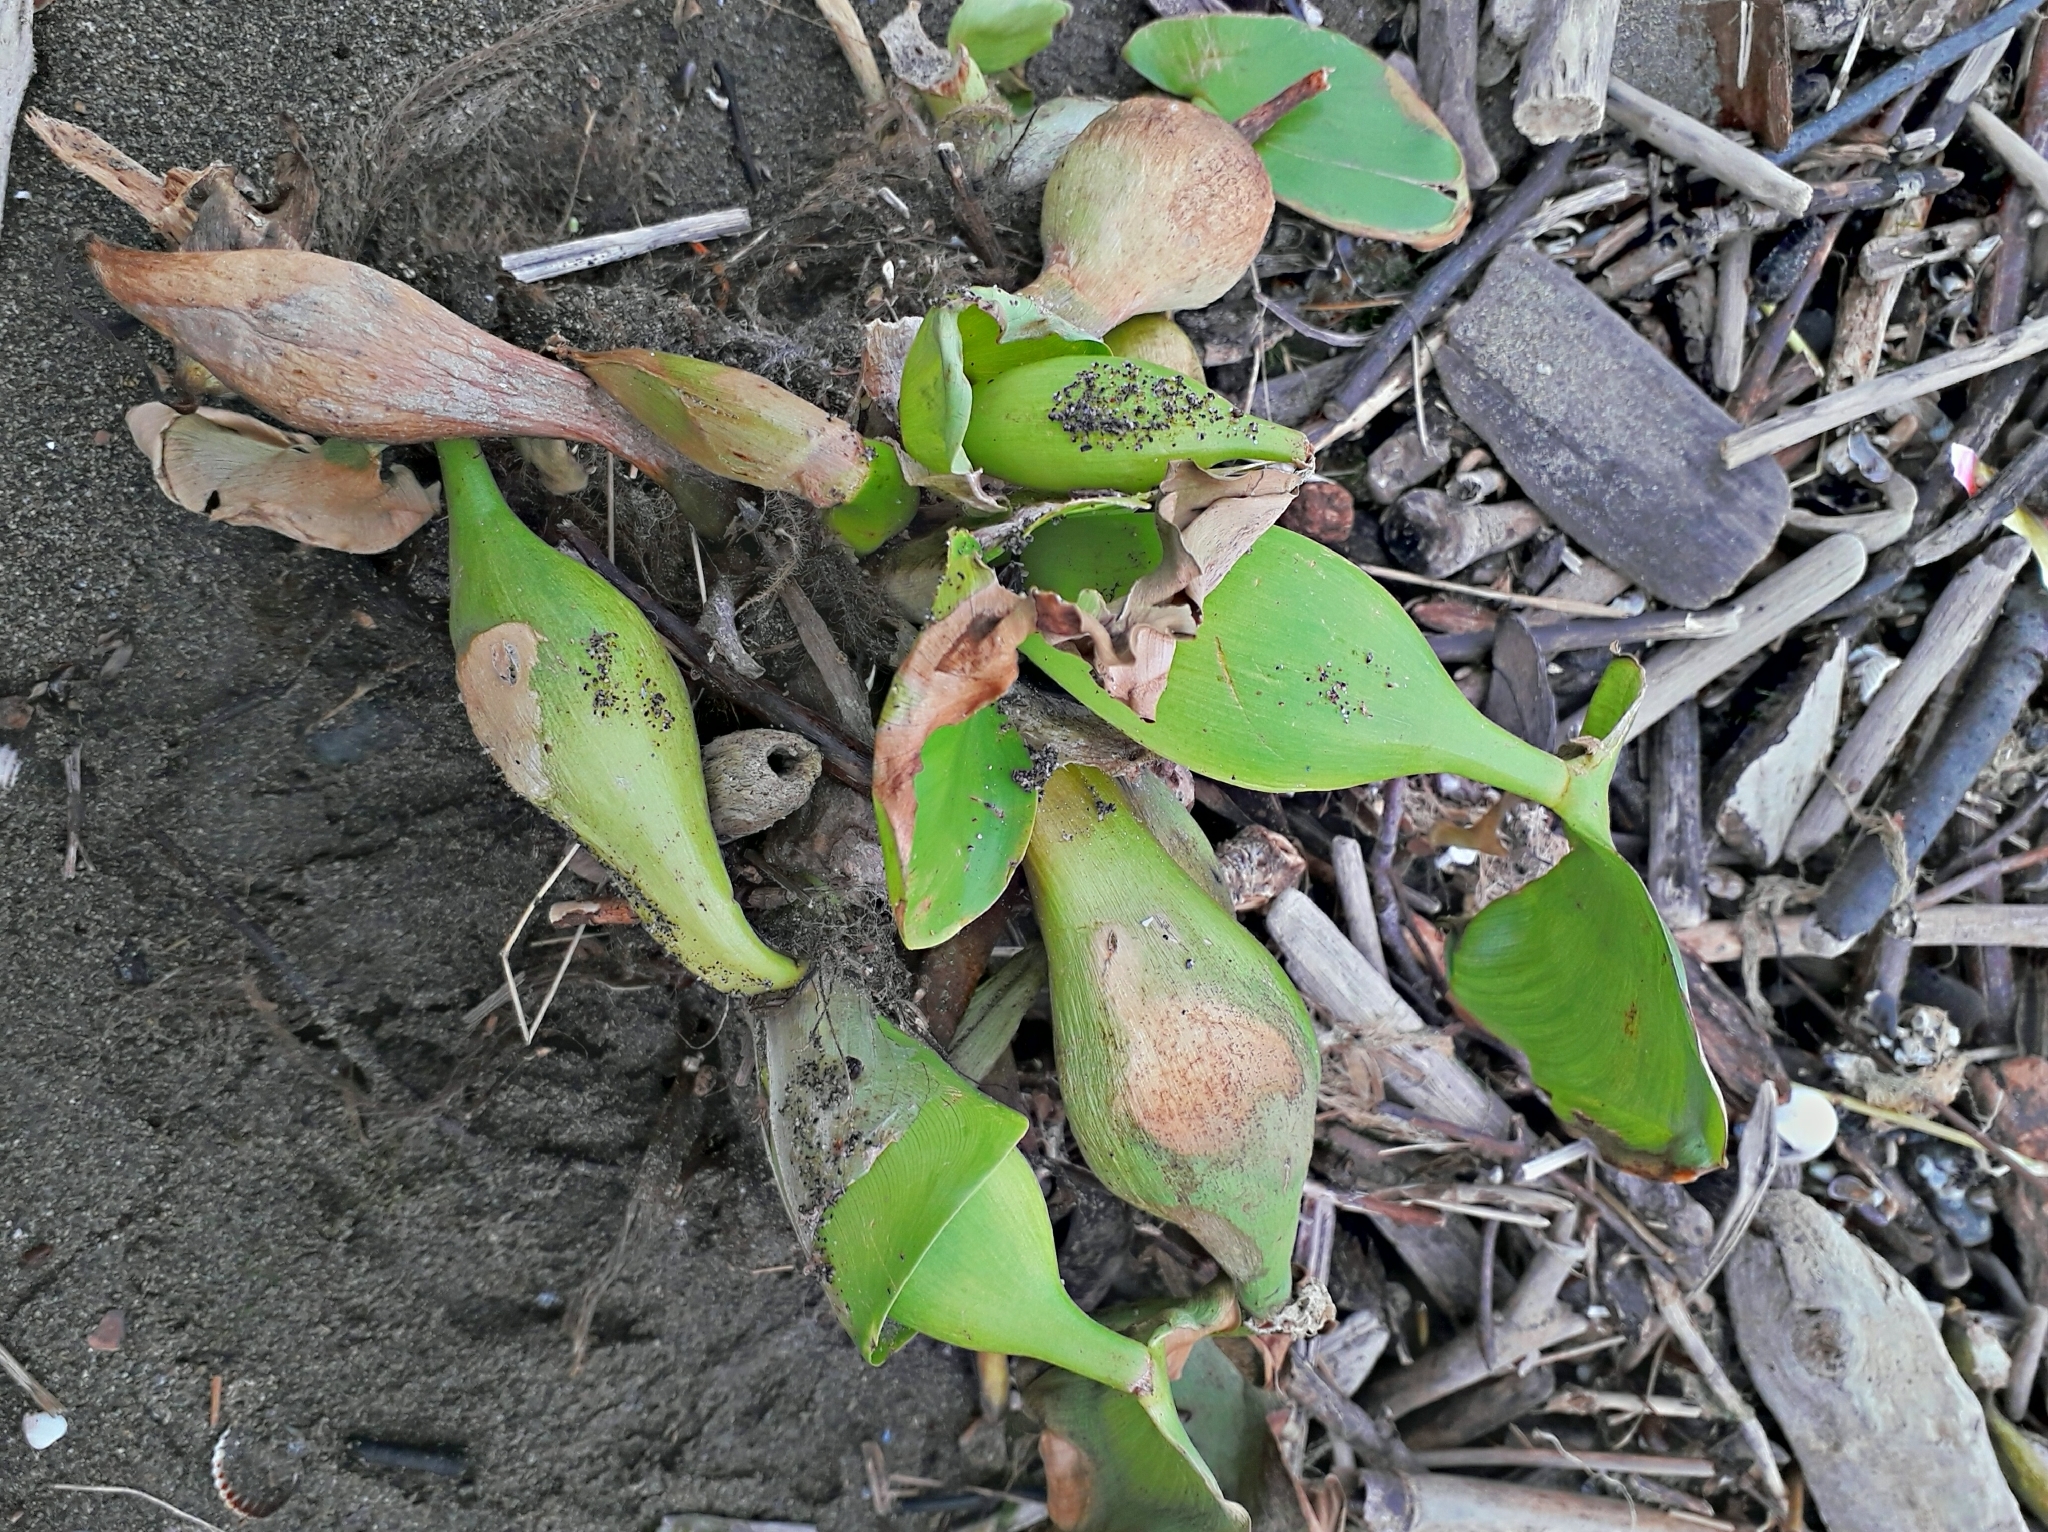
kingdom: Plantae
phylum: Tracheophyta
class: Liliopsida
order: Commelinales
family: Pontederiaceae
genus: Pontederia
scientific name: Pontederia crassipes
